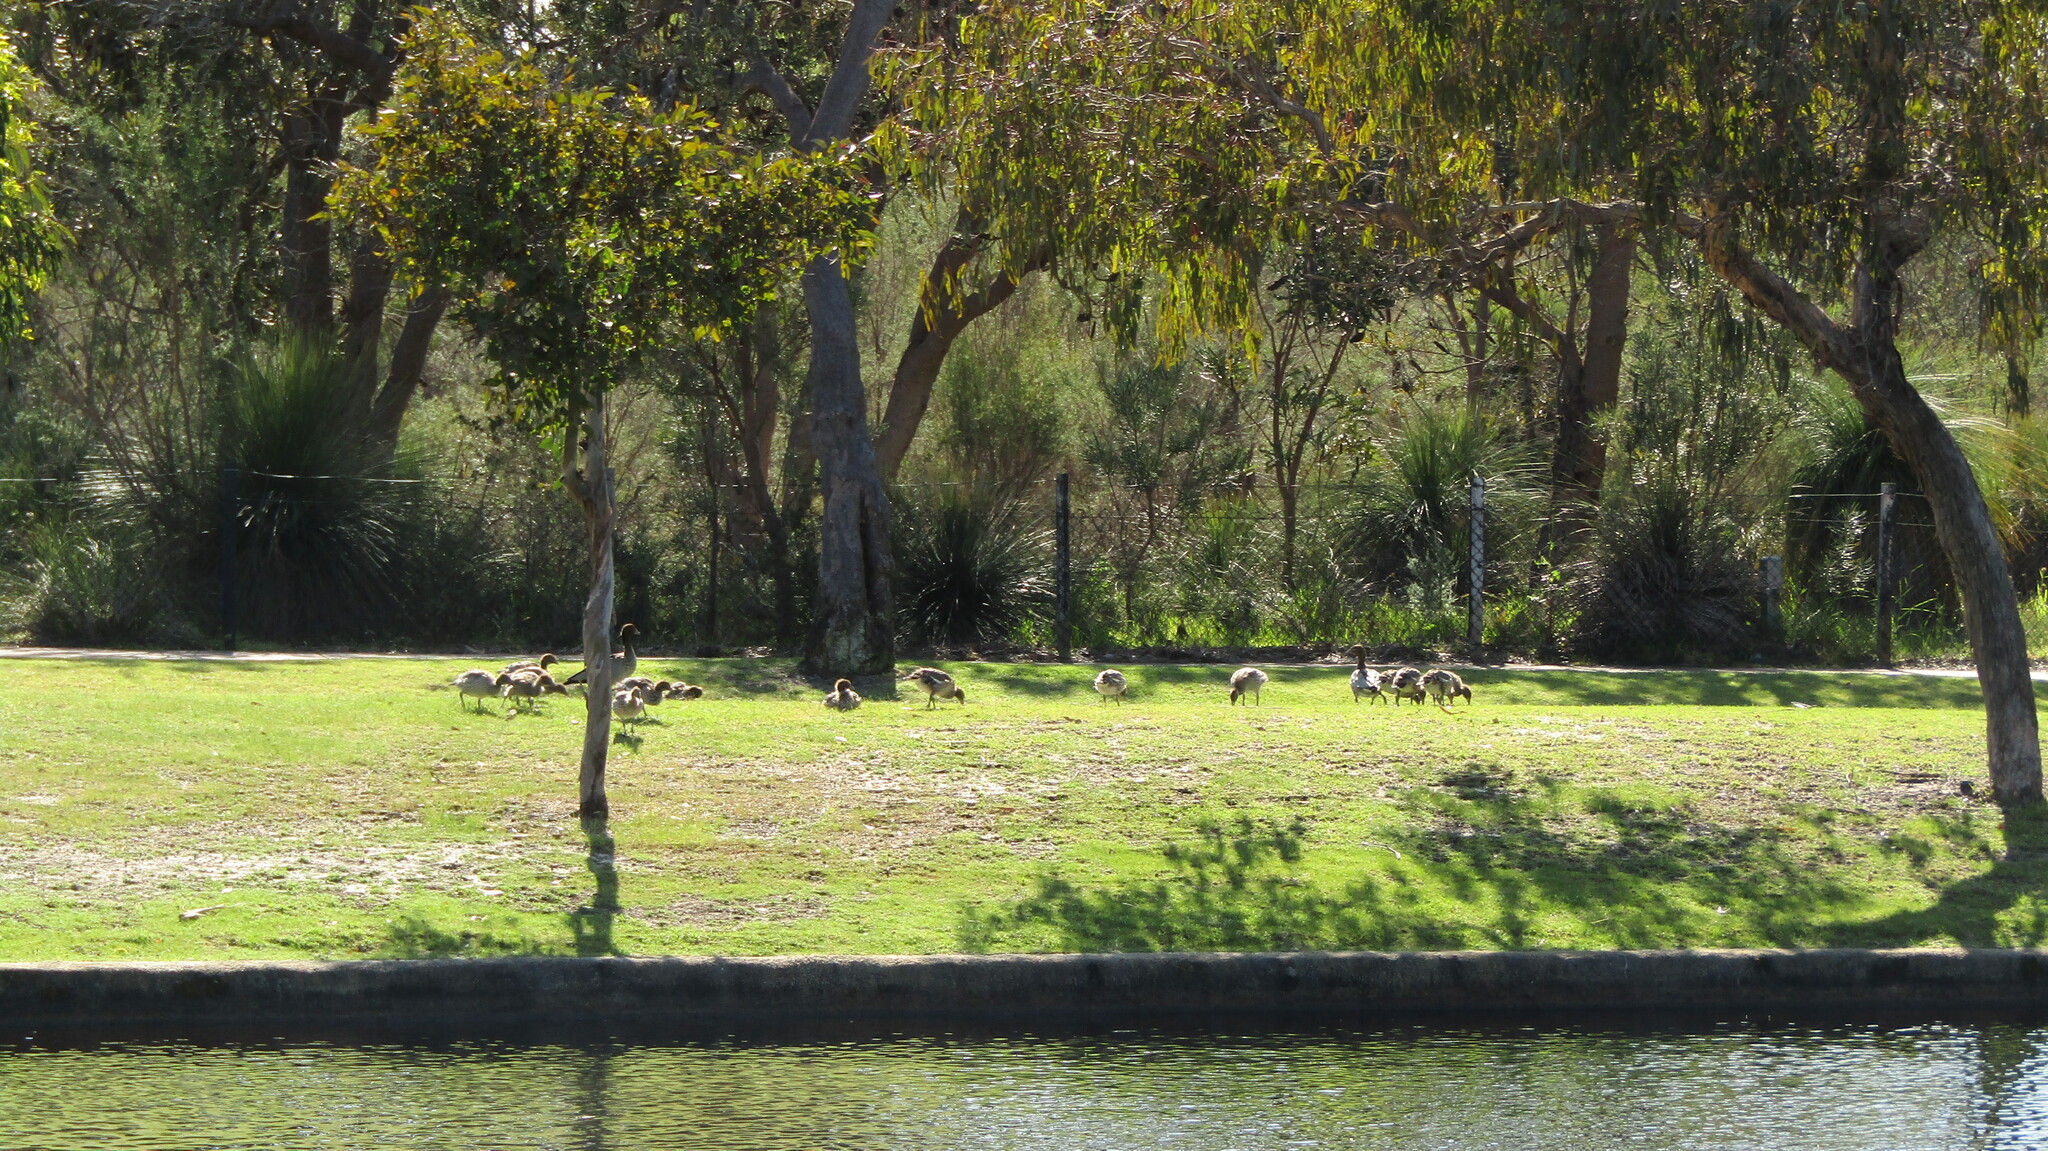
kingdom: Animalia
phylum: Chordata
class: Aves
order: Anseriformes
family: Anatidae
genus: Chenonetta
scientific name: Chenonetta jubata
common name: Maned duck
